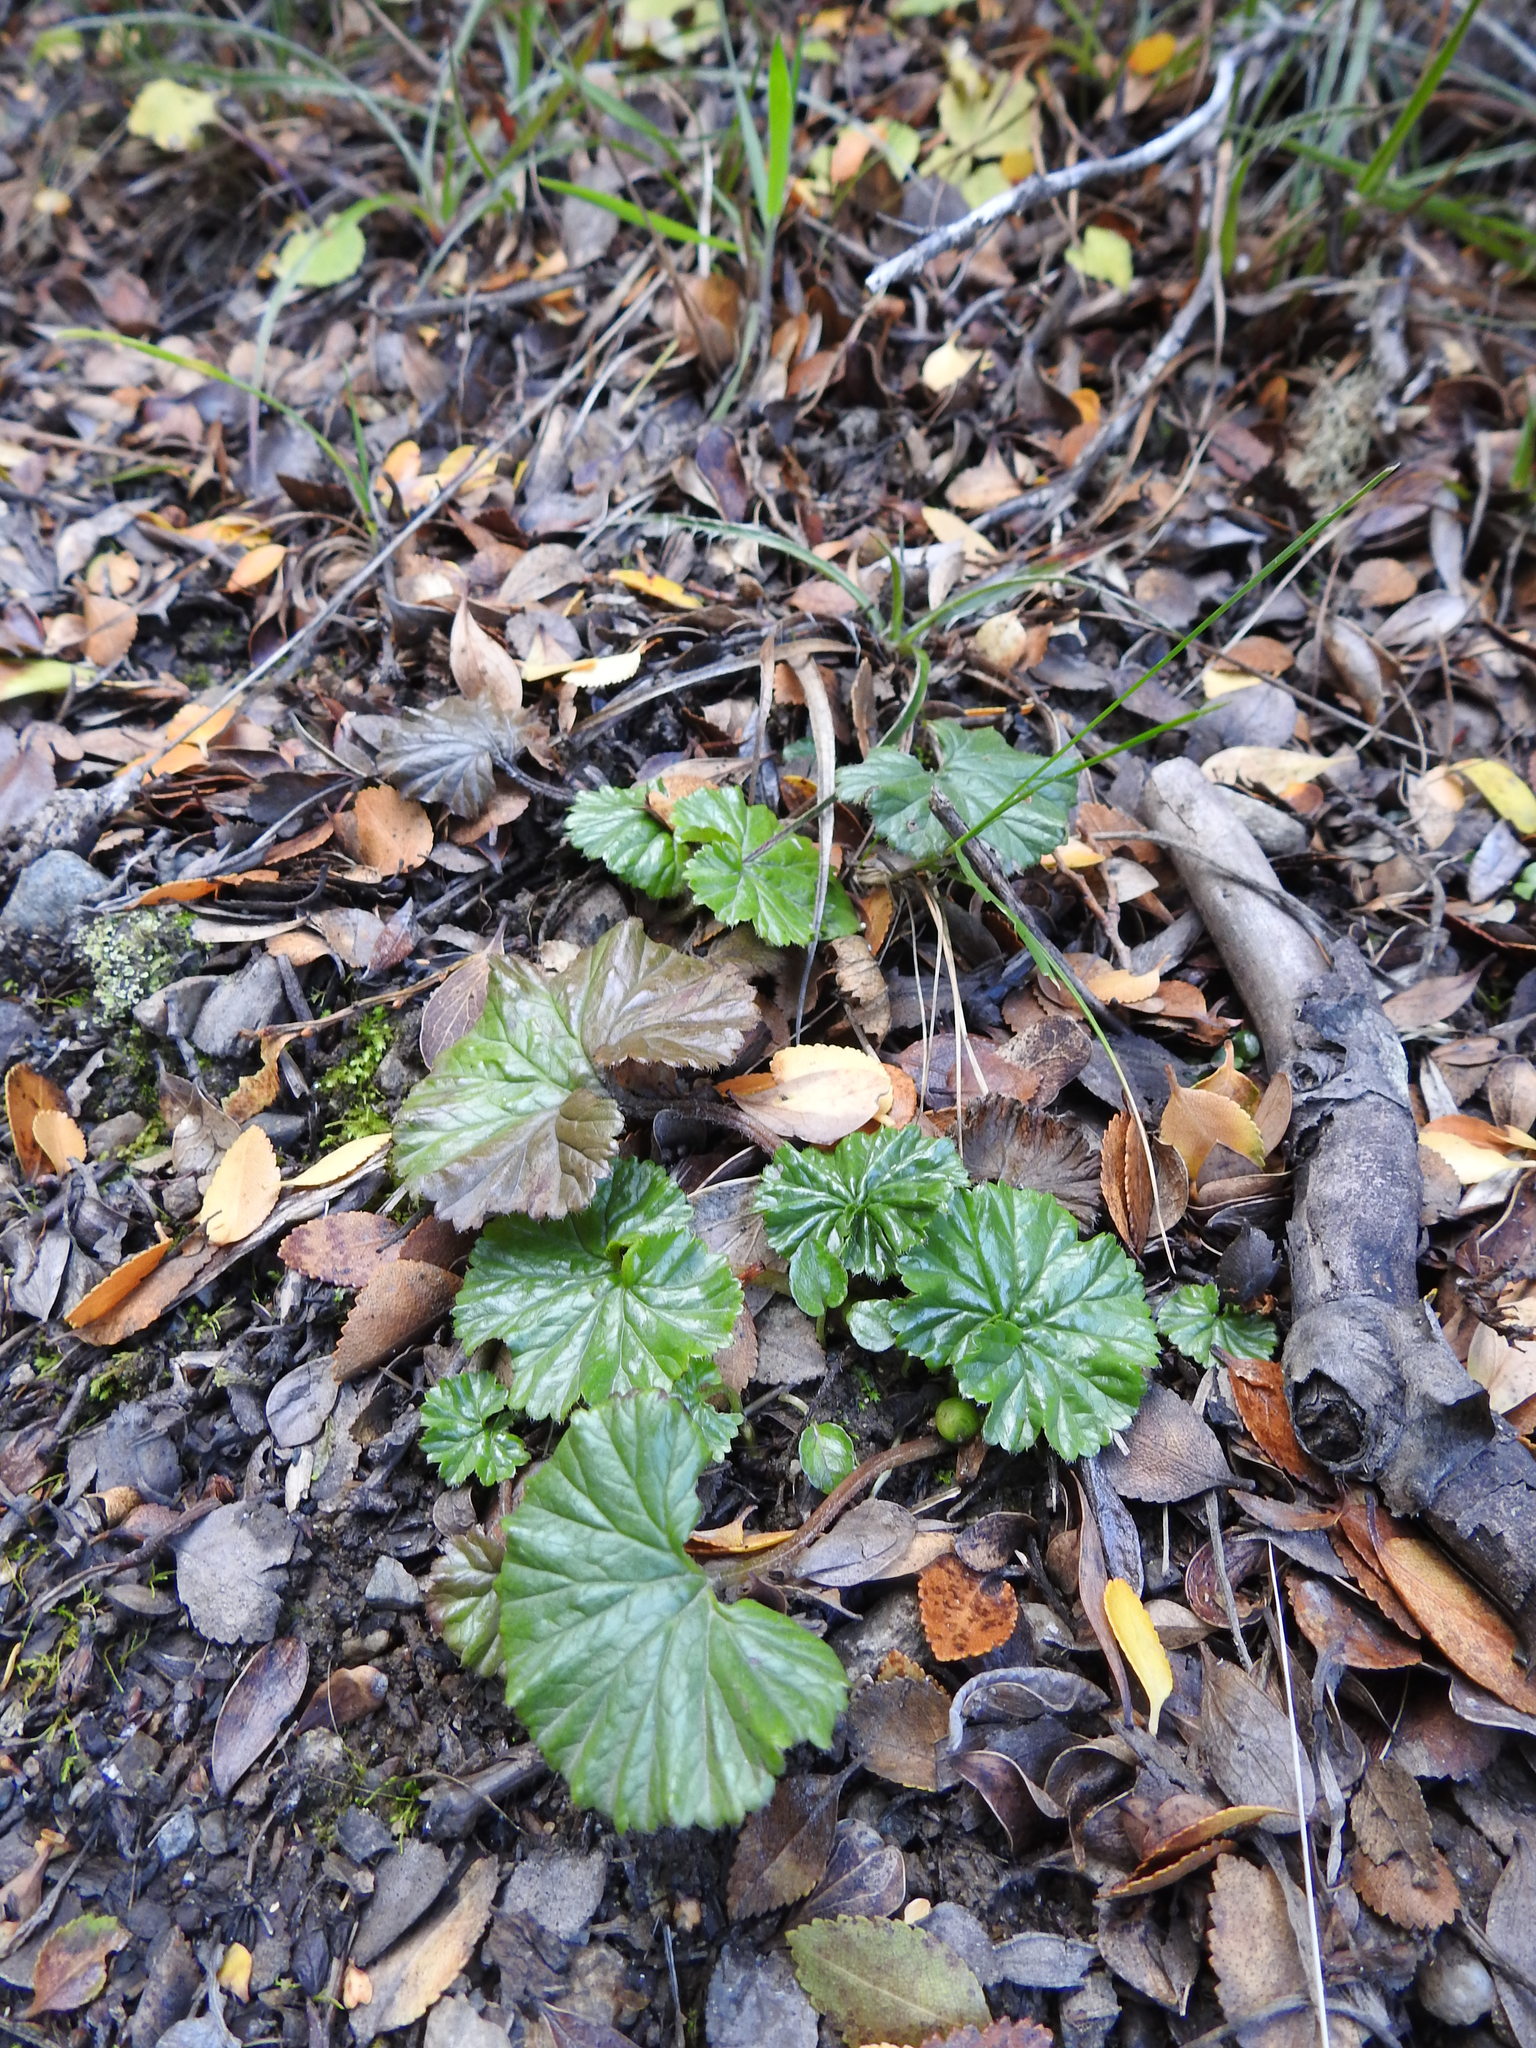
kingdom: Plantae
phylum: Tracheophyta
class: Magnoliopsida
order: Gunnerales
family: Gunneraceae
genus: Gunnera
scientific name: Gunnera magellanica
